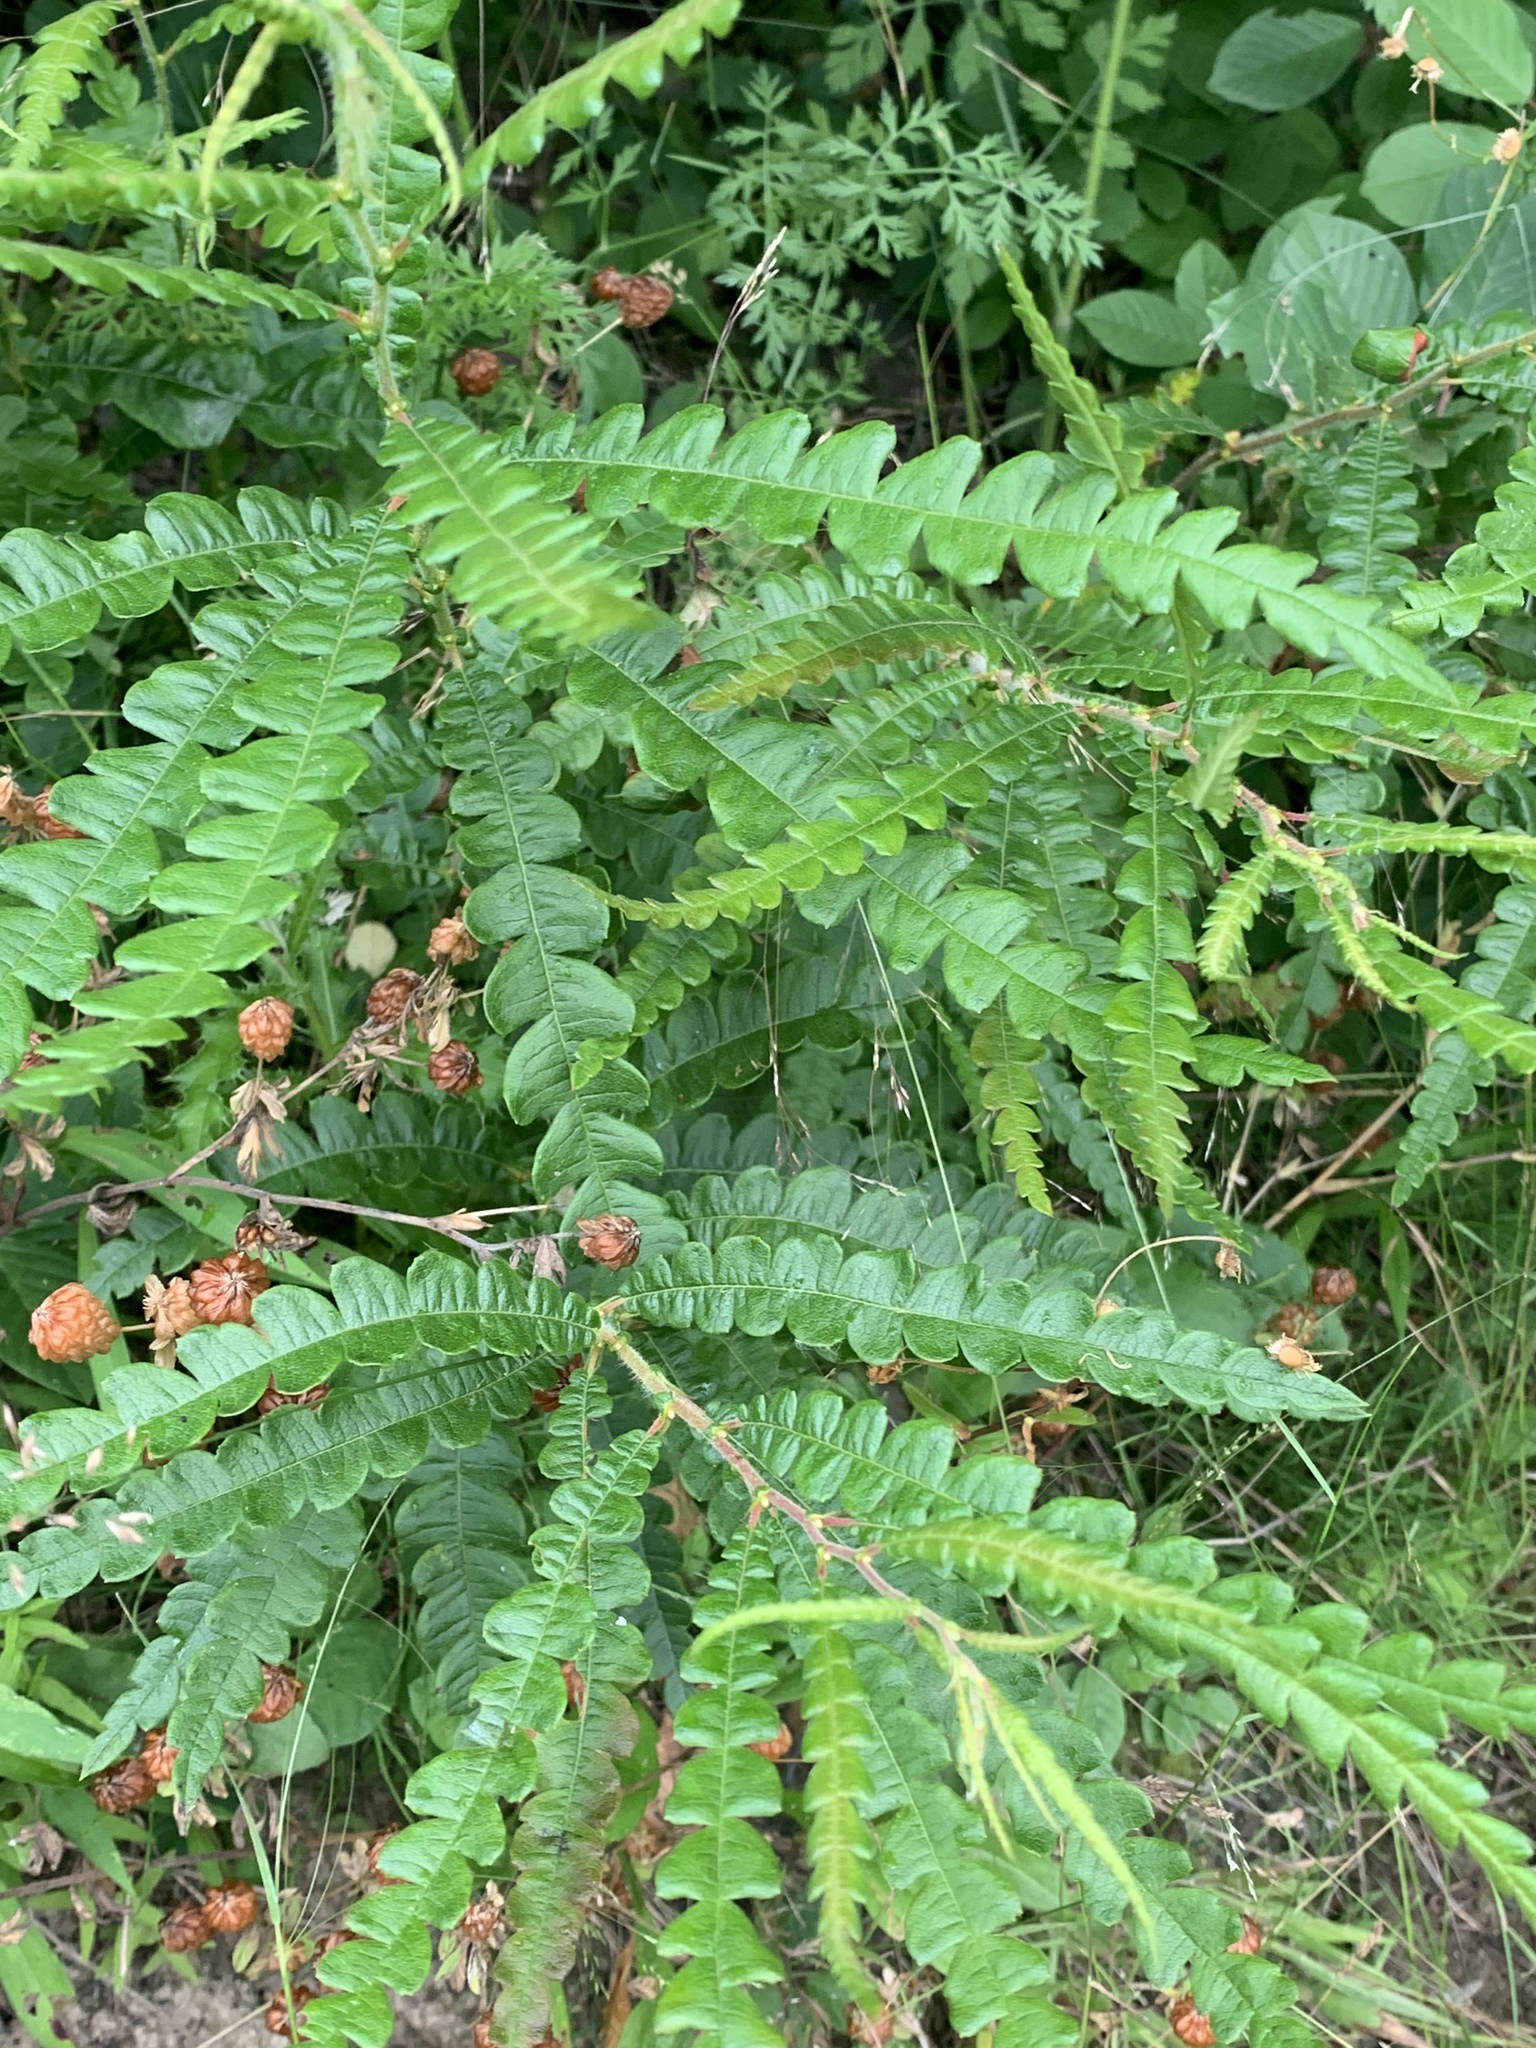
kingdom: Plantae
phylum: Tracheophyta
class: Magnoliopsida
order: Fagales
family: Myricaceae
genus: Comptonia
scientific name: Comptonia peregrina
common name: Sweet-fern
